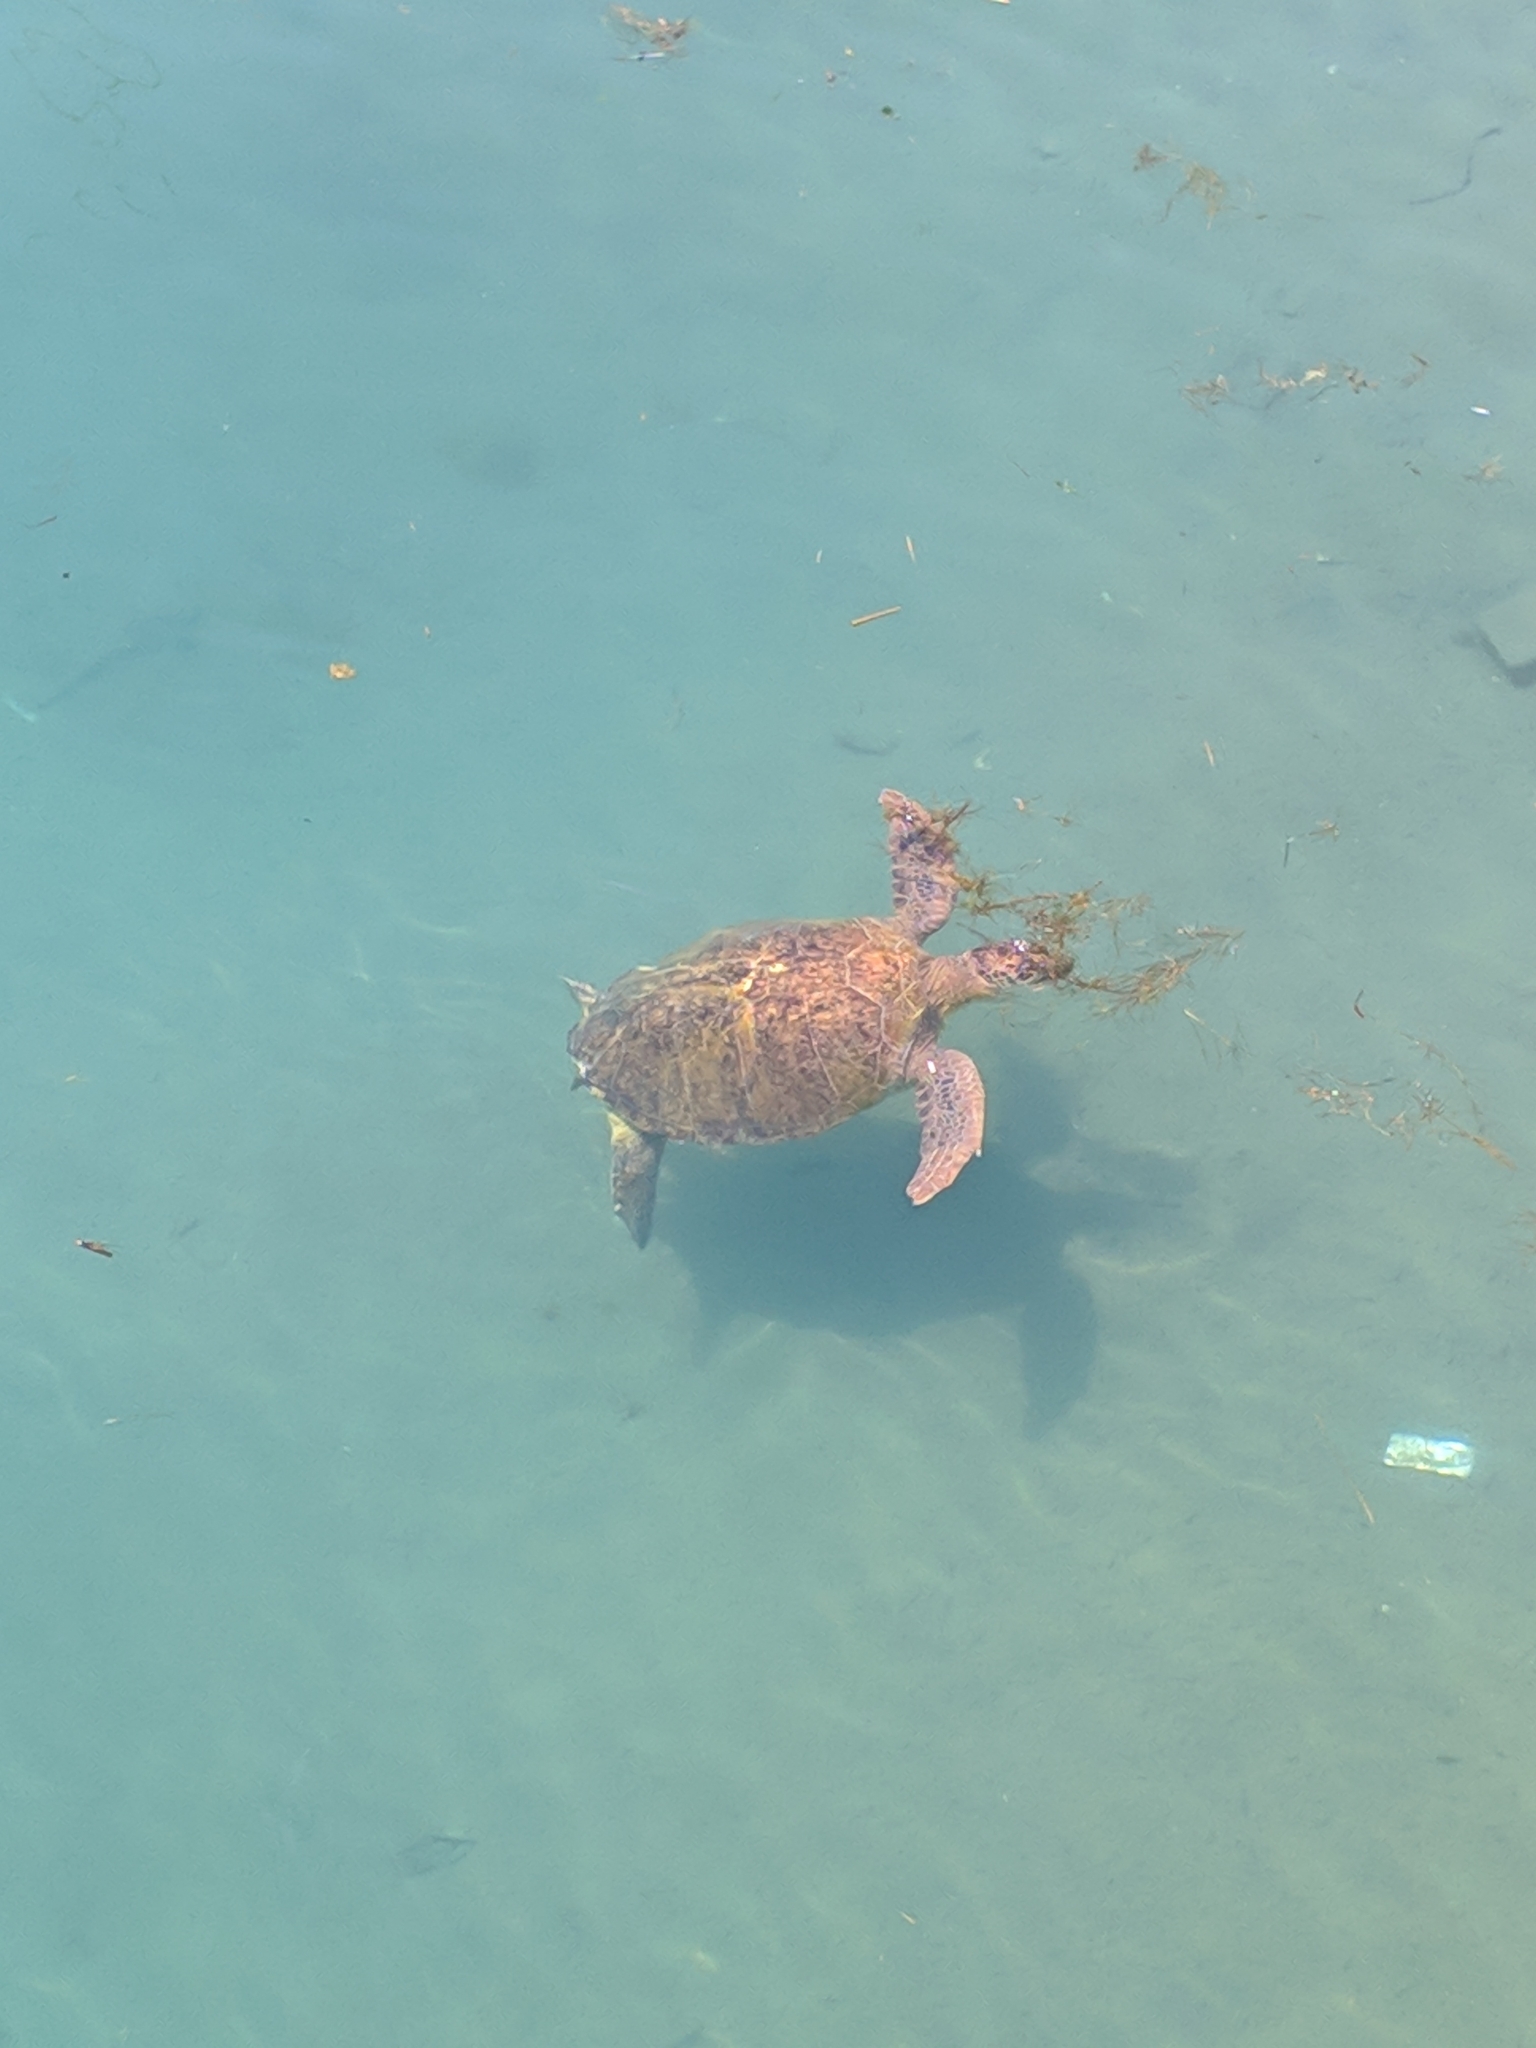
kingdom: Animalia
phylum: Chordata
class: Testudines
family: Cheloniidae
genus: Chelonia
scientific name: Chelonia mydas
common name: Green turtle
